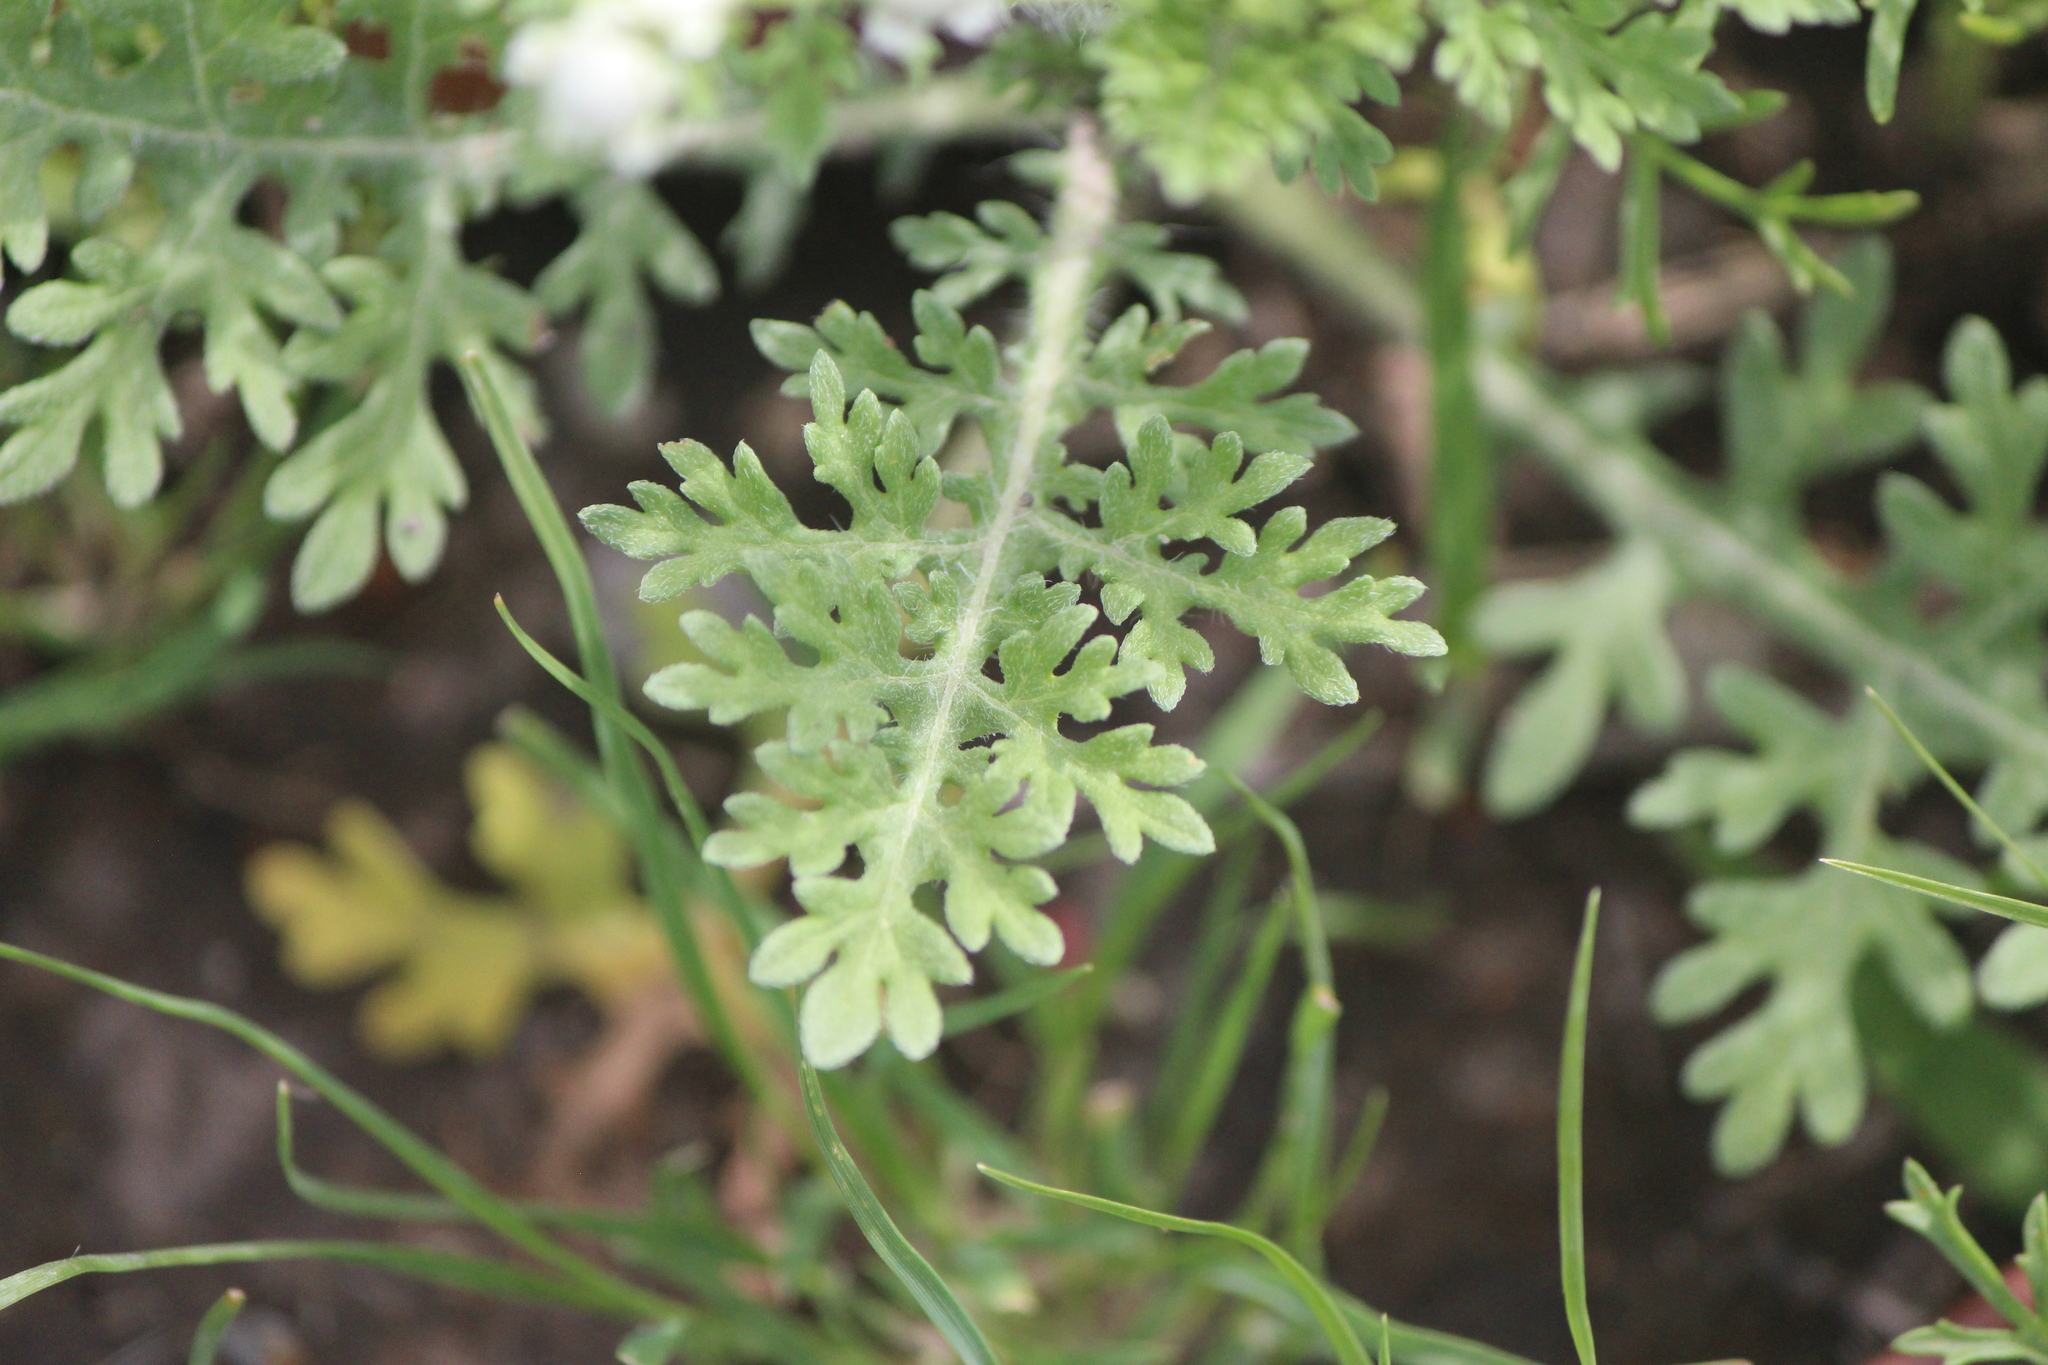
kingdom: Plantae
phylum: Tracheophyta
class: Magnoliopsida
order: Asterales
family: Asteraceae
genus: Parthenium
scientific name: Parthenium bipinnatifidum
